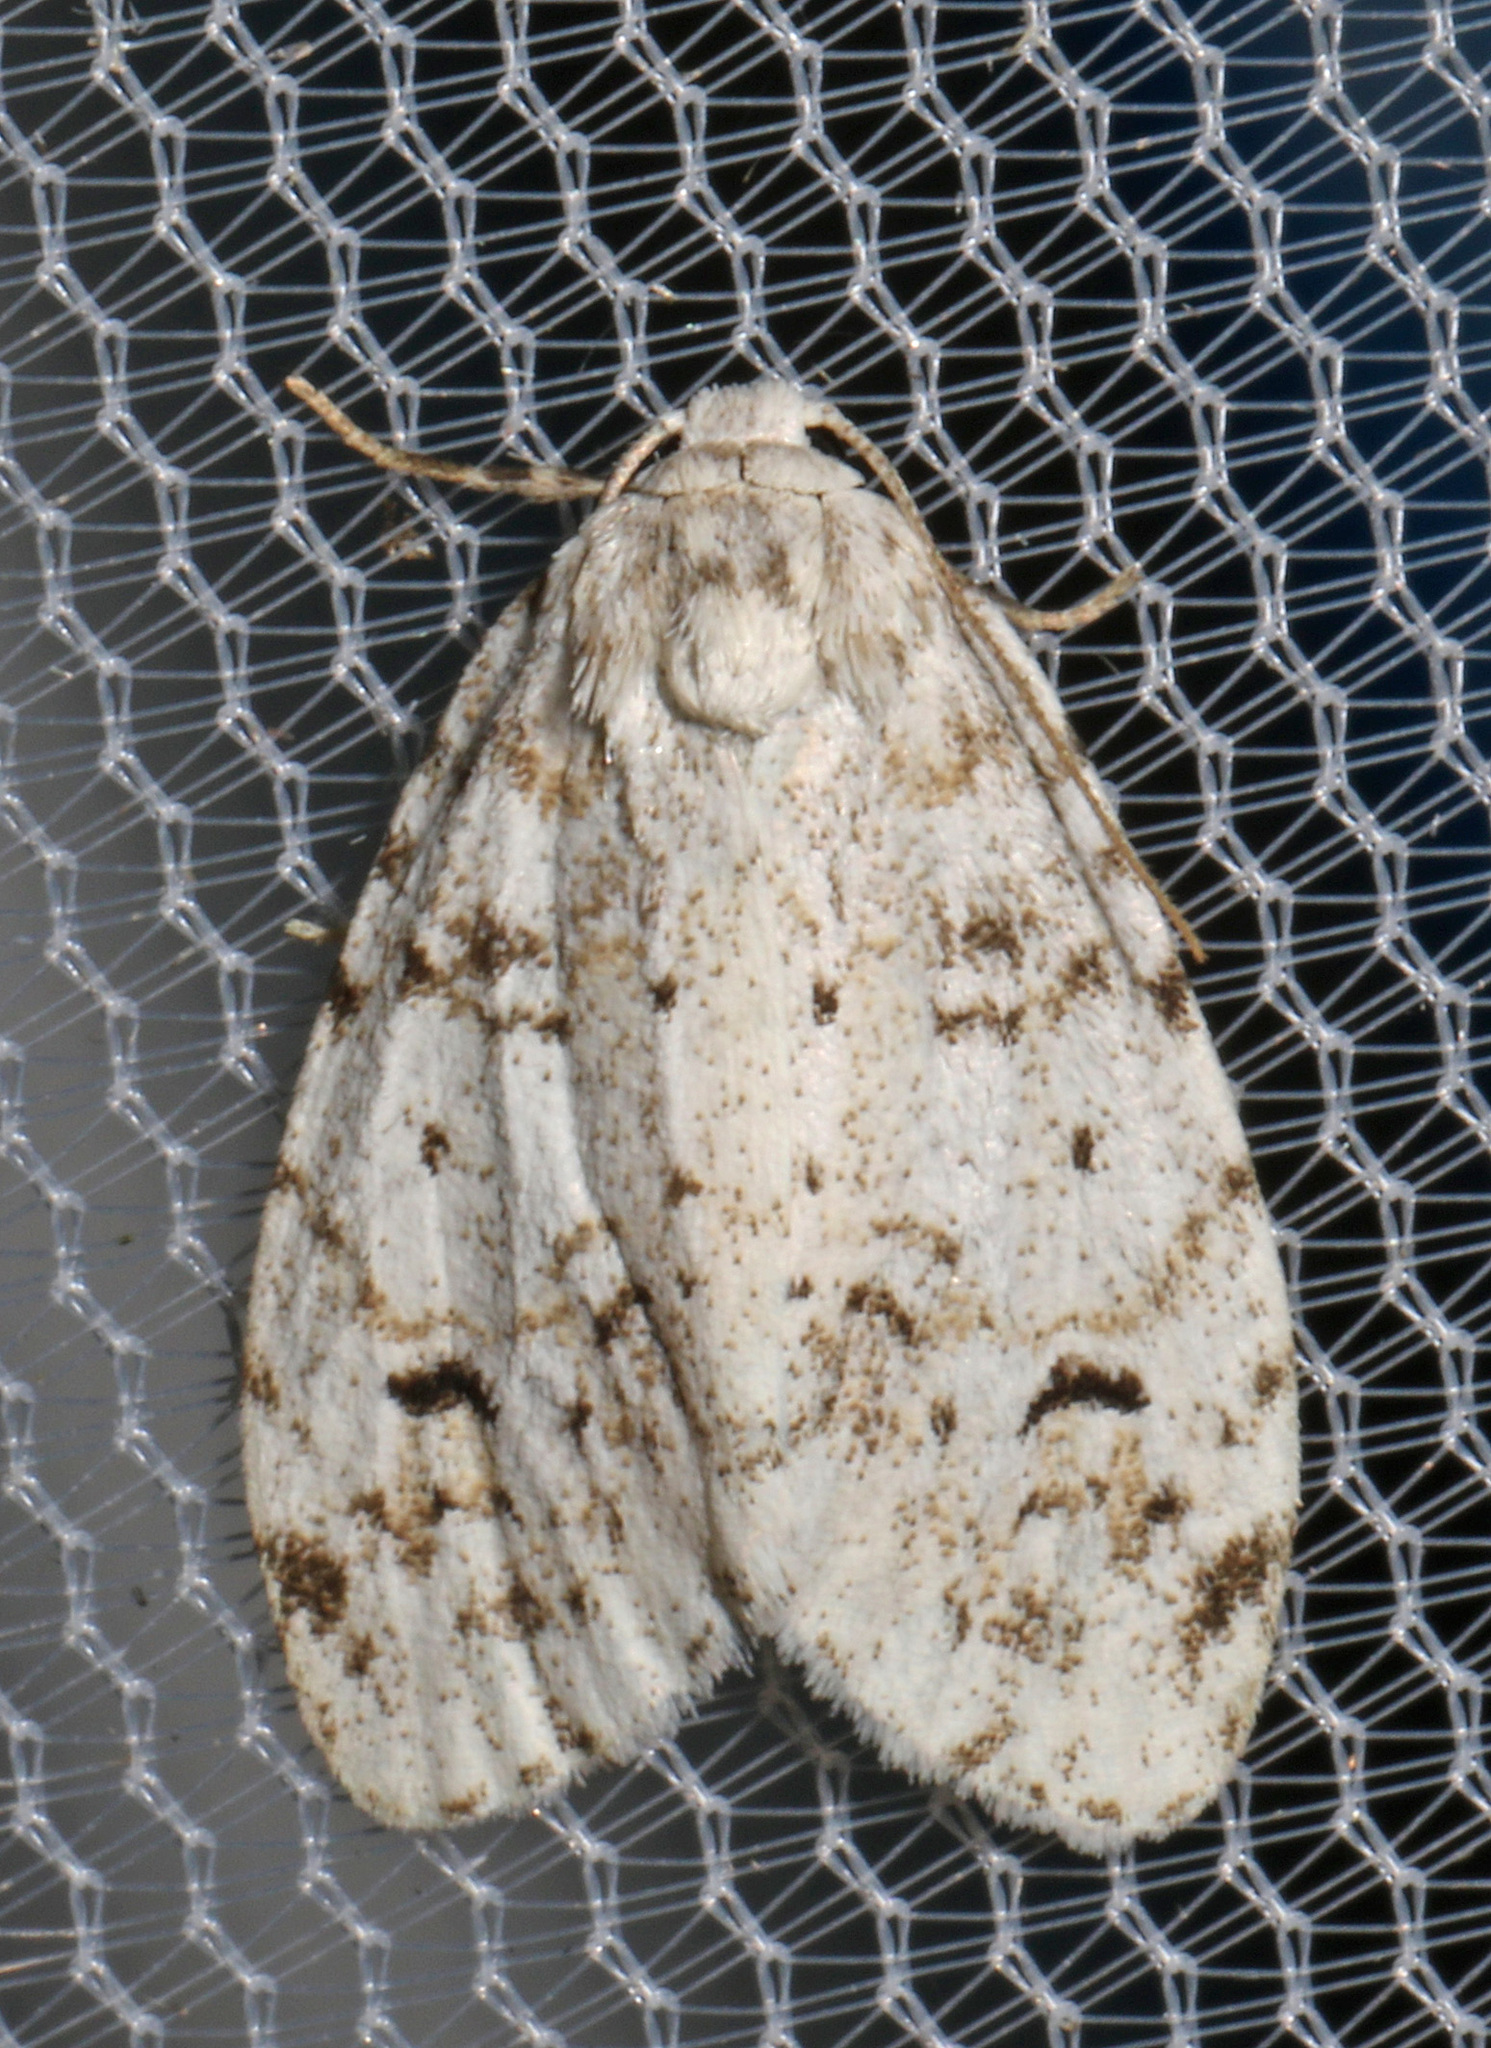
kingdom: Animalia
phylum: Arthropoda
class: Insecta
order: Lepidoptera
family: Erebidae
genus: Clemensia
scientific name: Clemensia albata
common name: Little white lichen moth
